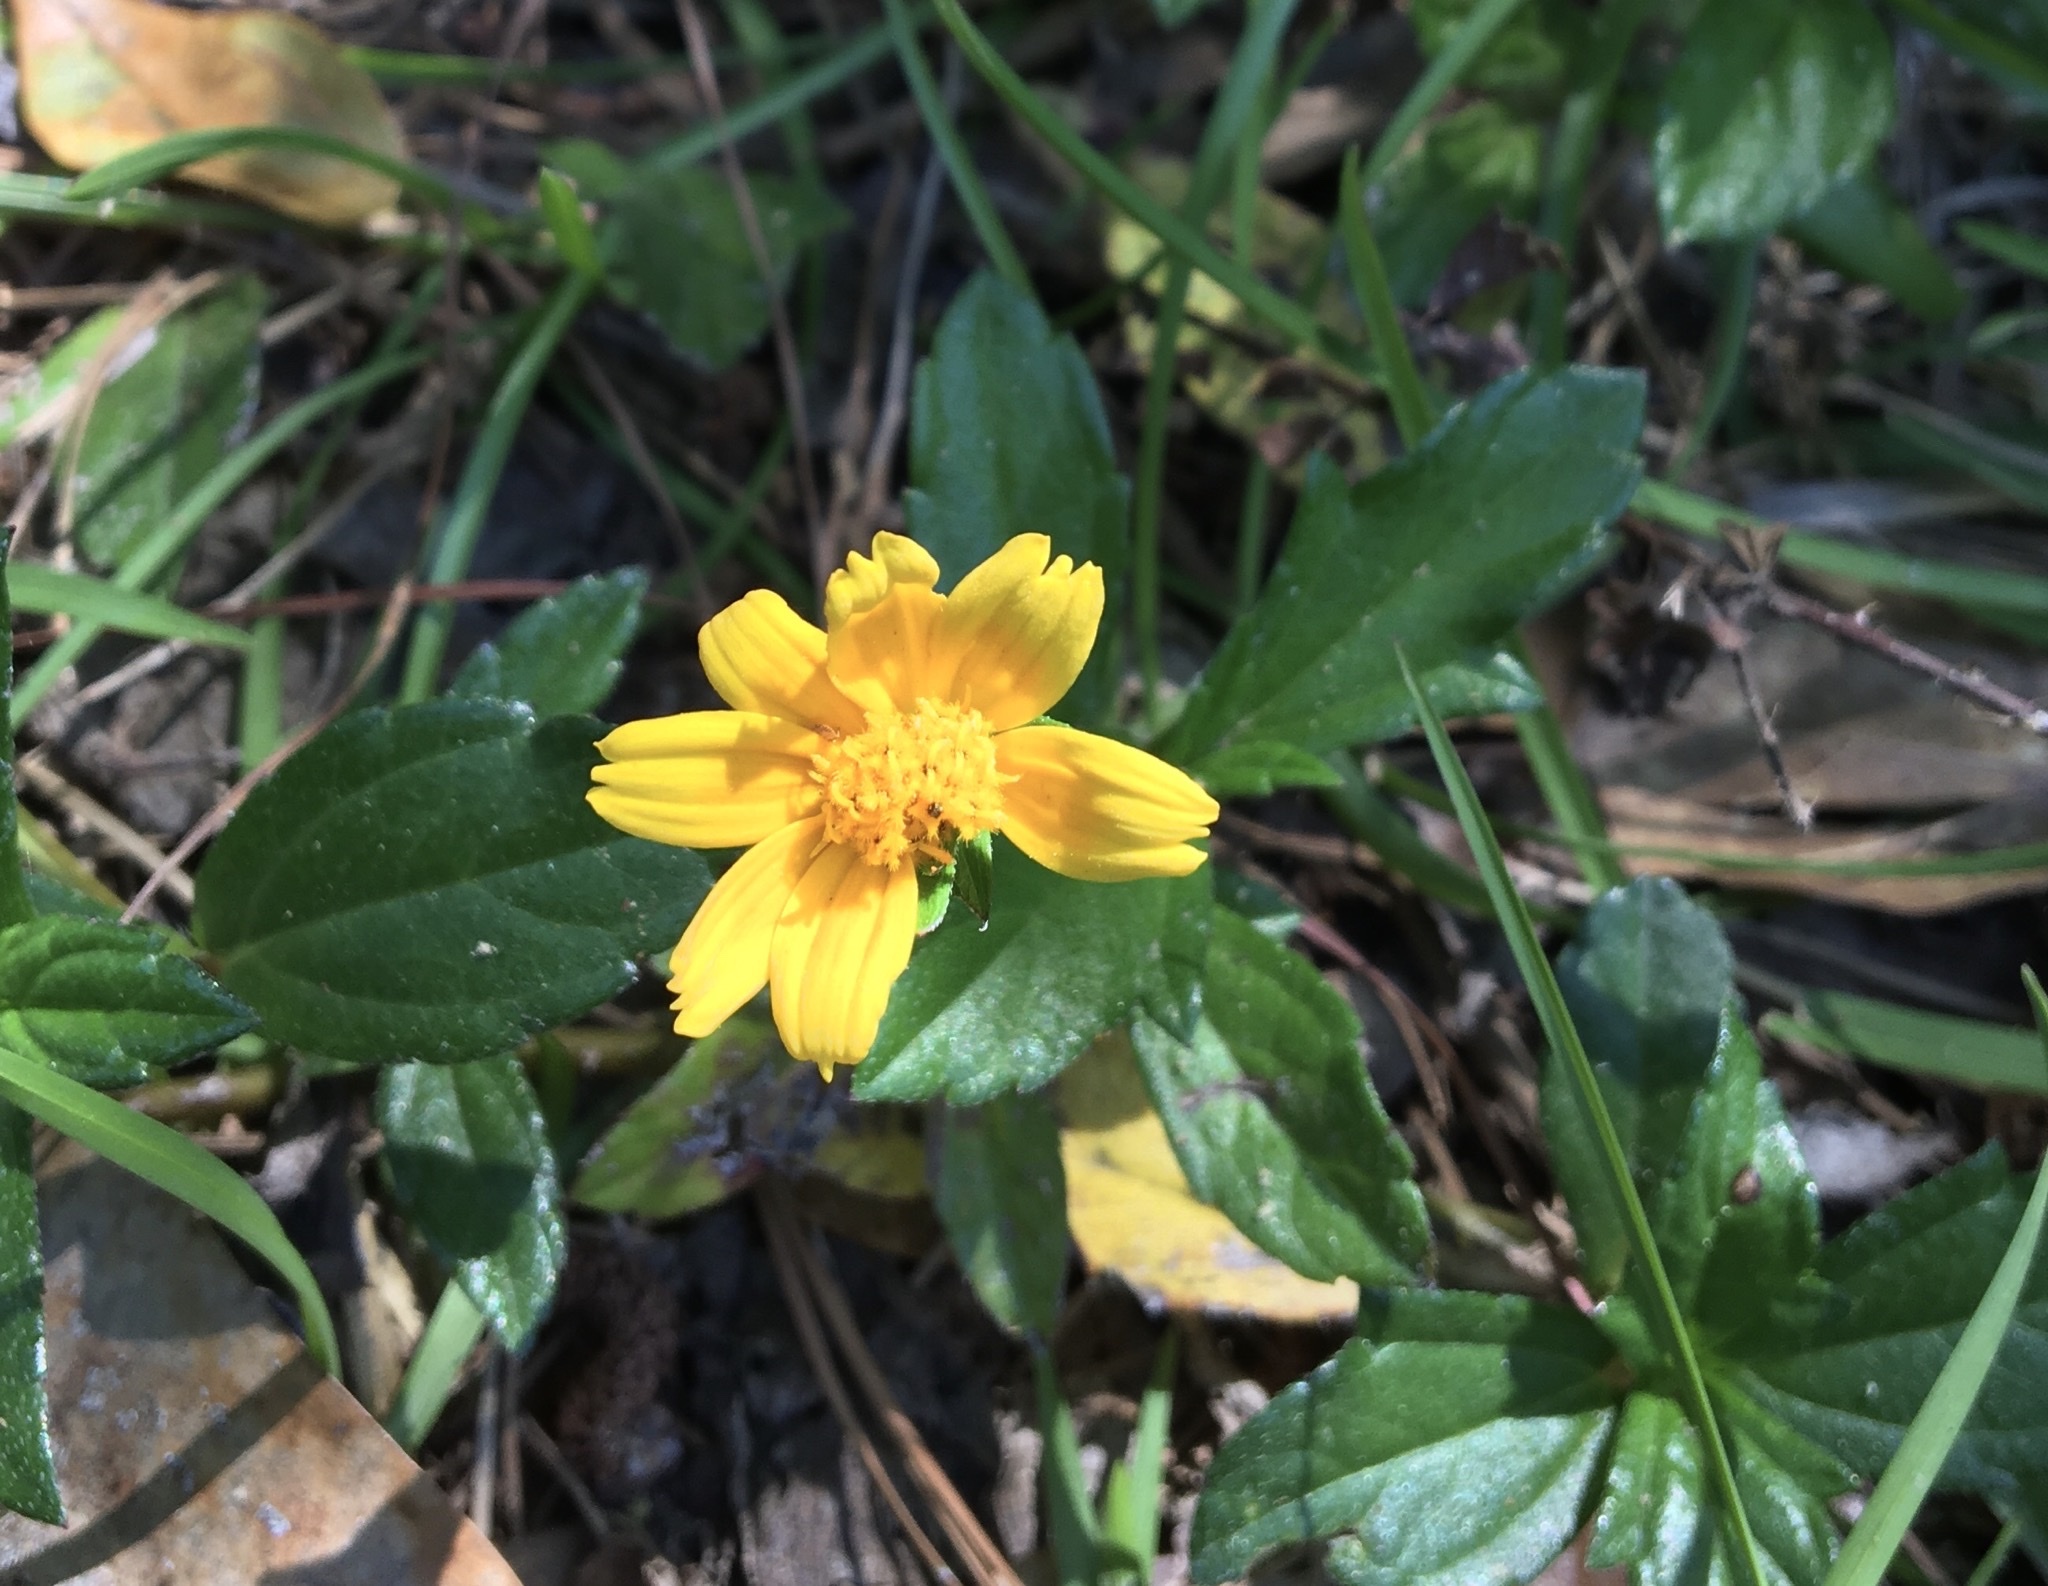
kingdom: Plantae
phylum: Tracheophyta
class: Magnoliopsida
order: Asterales
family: Asteraceae
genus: Sphagneticola
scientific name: Sphagneticola trilobata
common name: Bay biscayne creeping-oxeye
